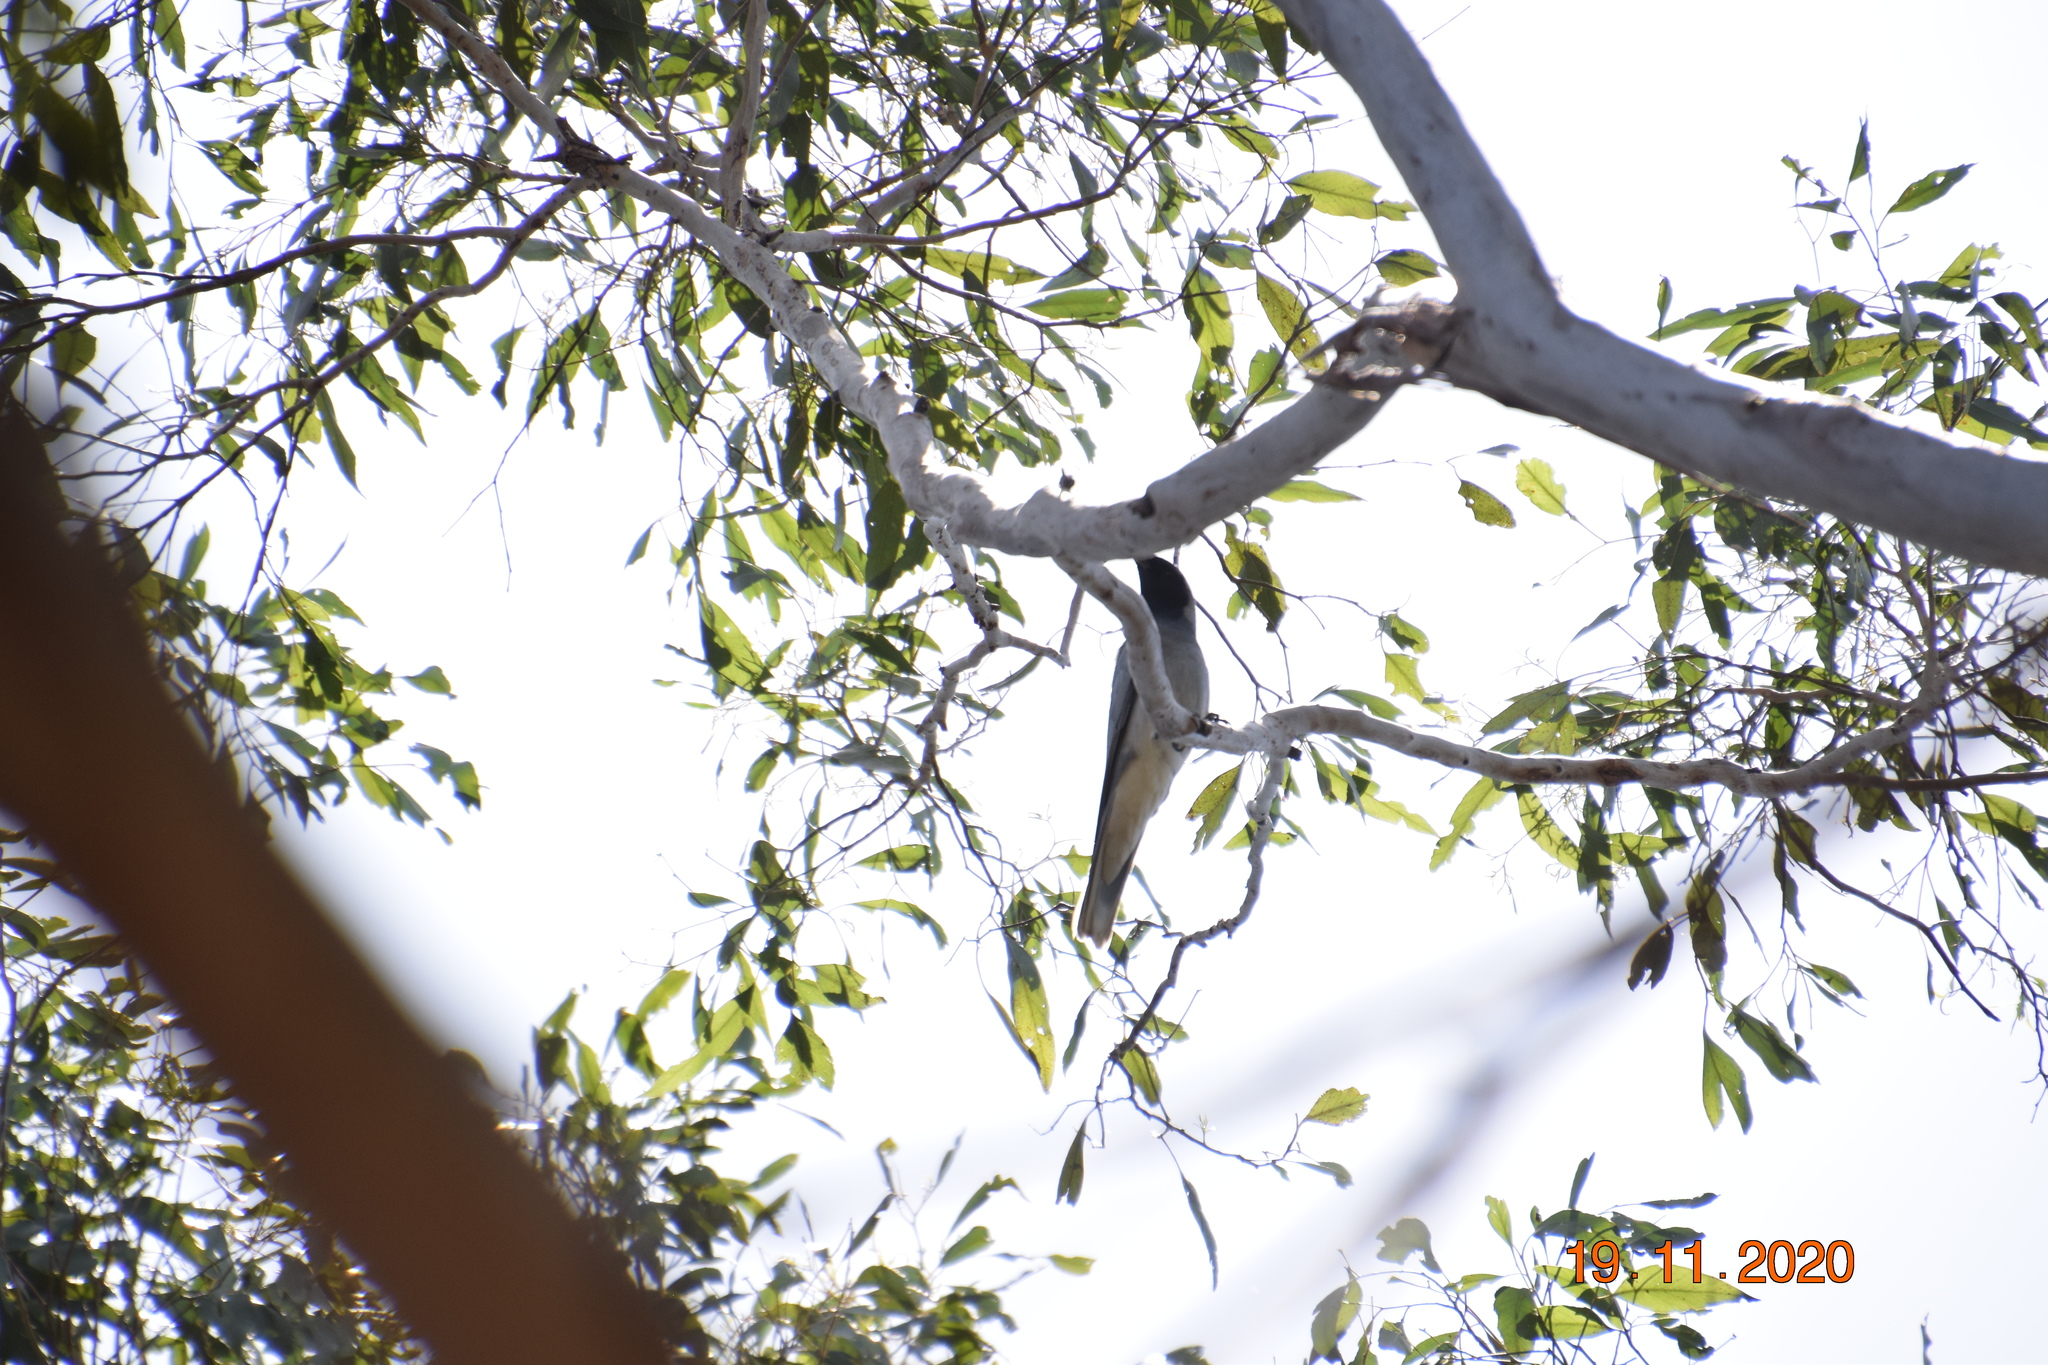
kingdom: Animalia
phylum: Chordata
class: Aves
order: Passeriformes
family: Campephagidae
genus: Coracina
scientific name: Coracina novaehollandiae
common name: Black-faced cuckooshrike
